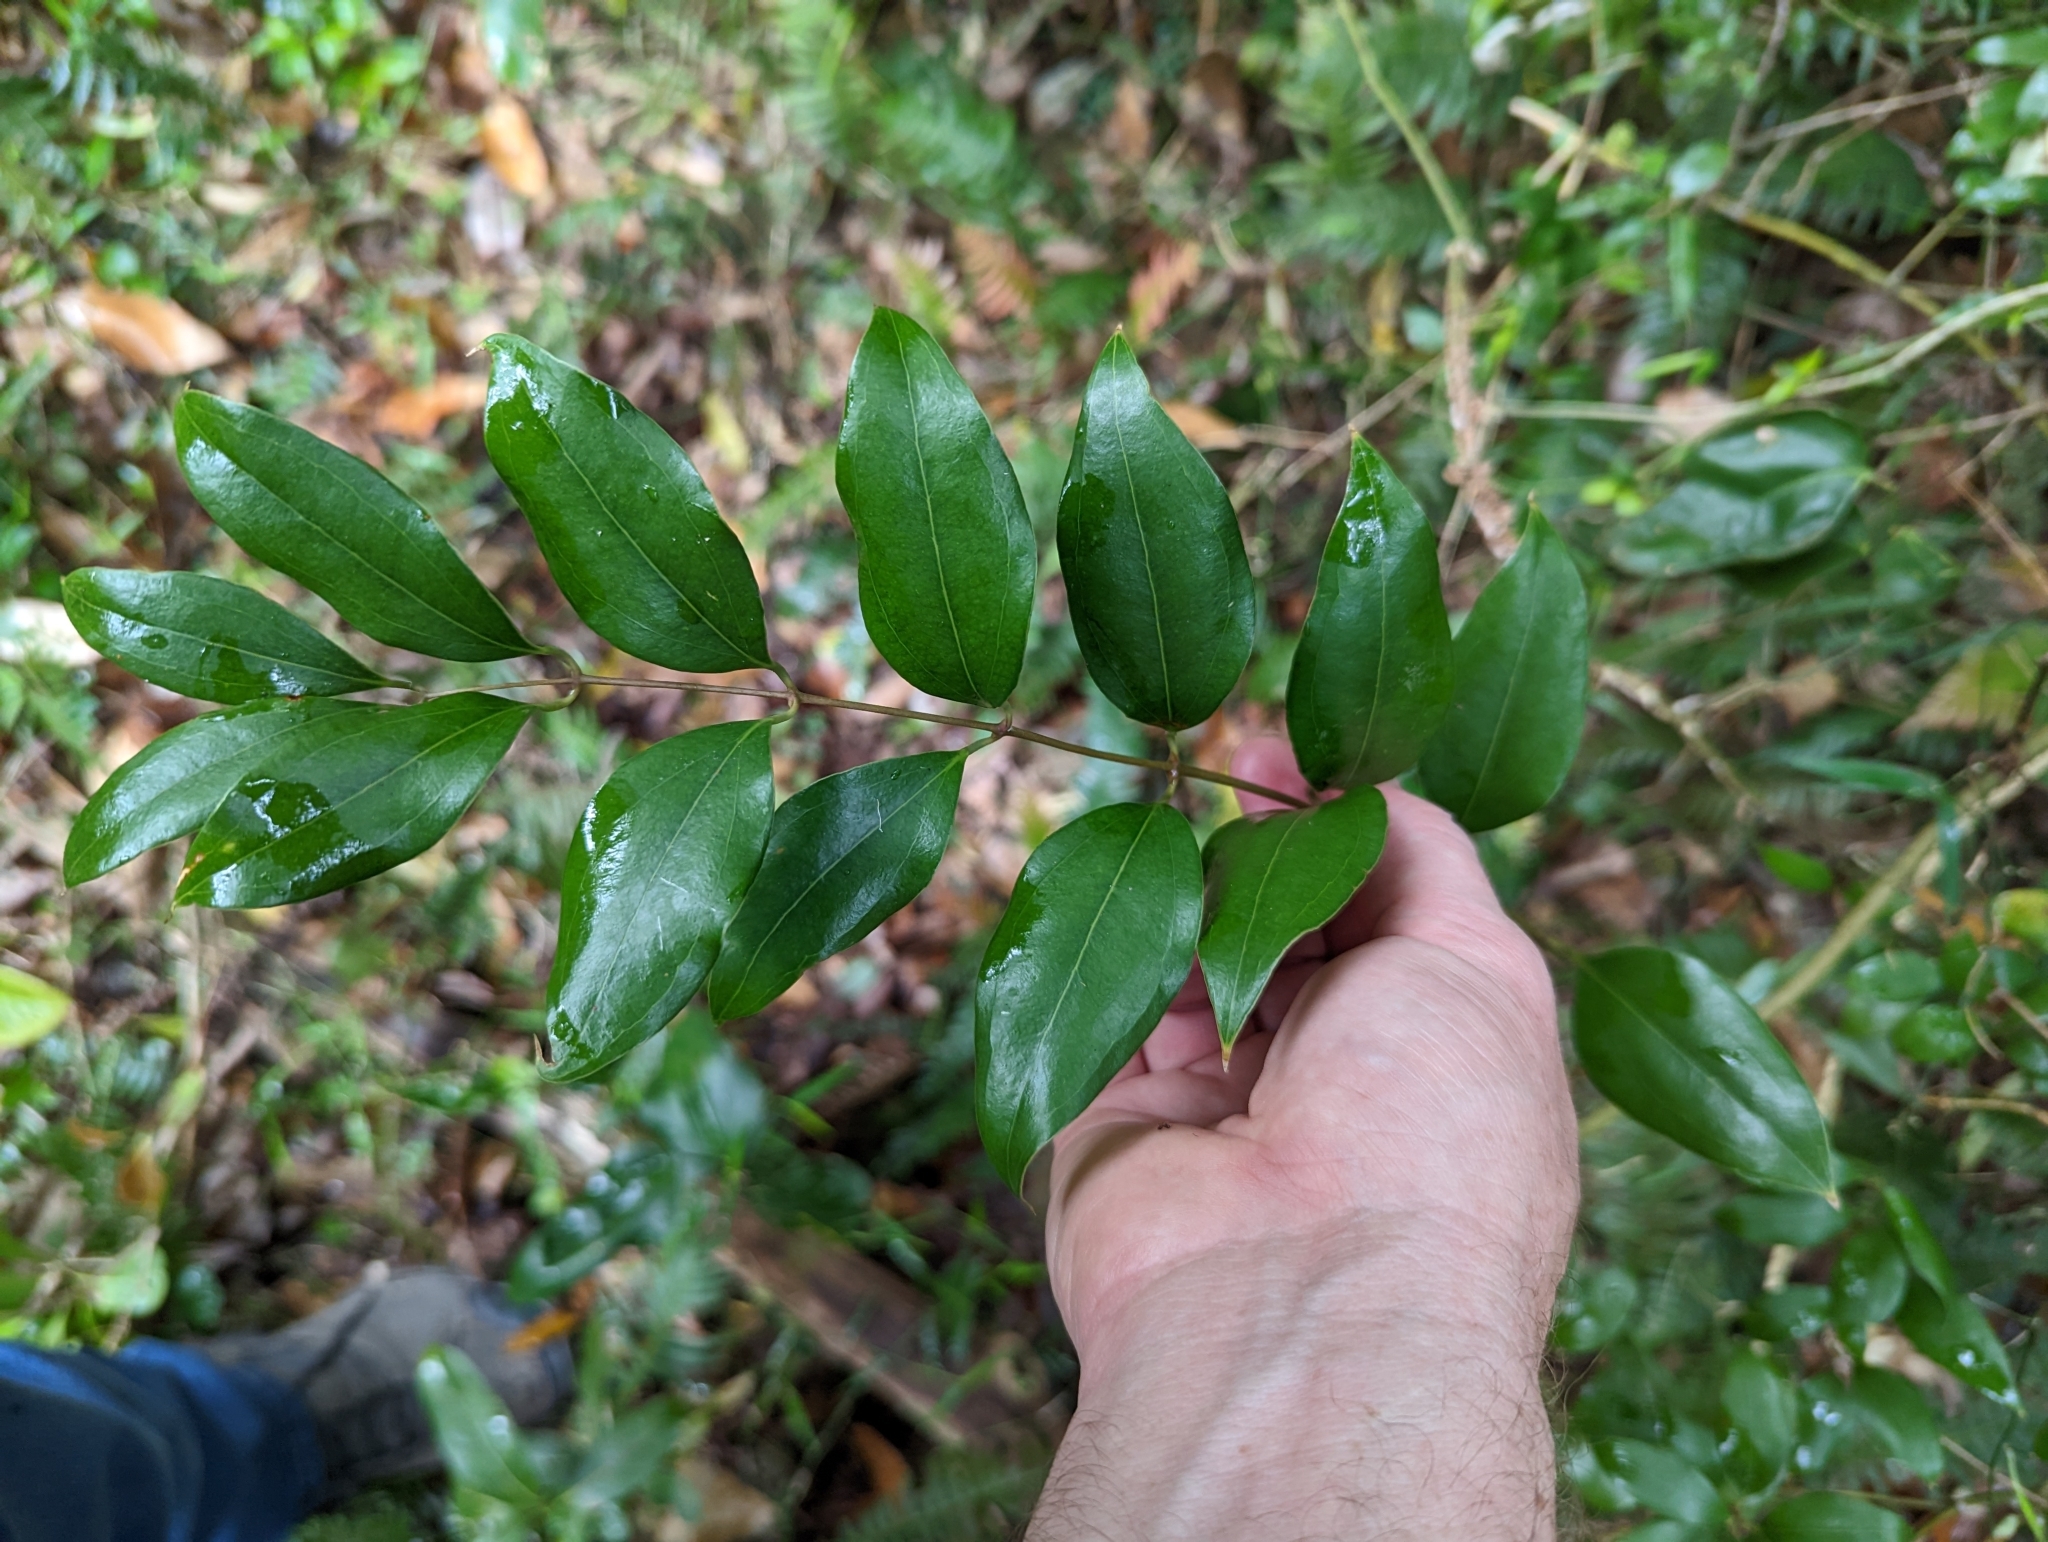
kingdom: Plantae
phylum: Tracheophyta
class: Liliopsida
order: Liliales
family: Ripogonaceae
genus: Ripogonum
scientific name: Ripogonum brevifolium
